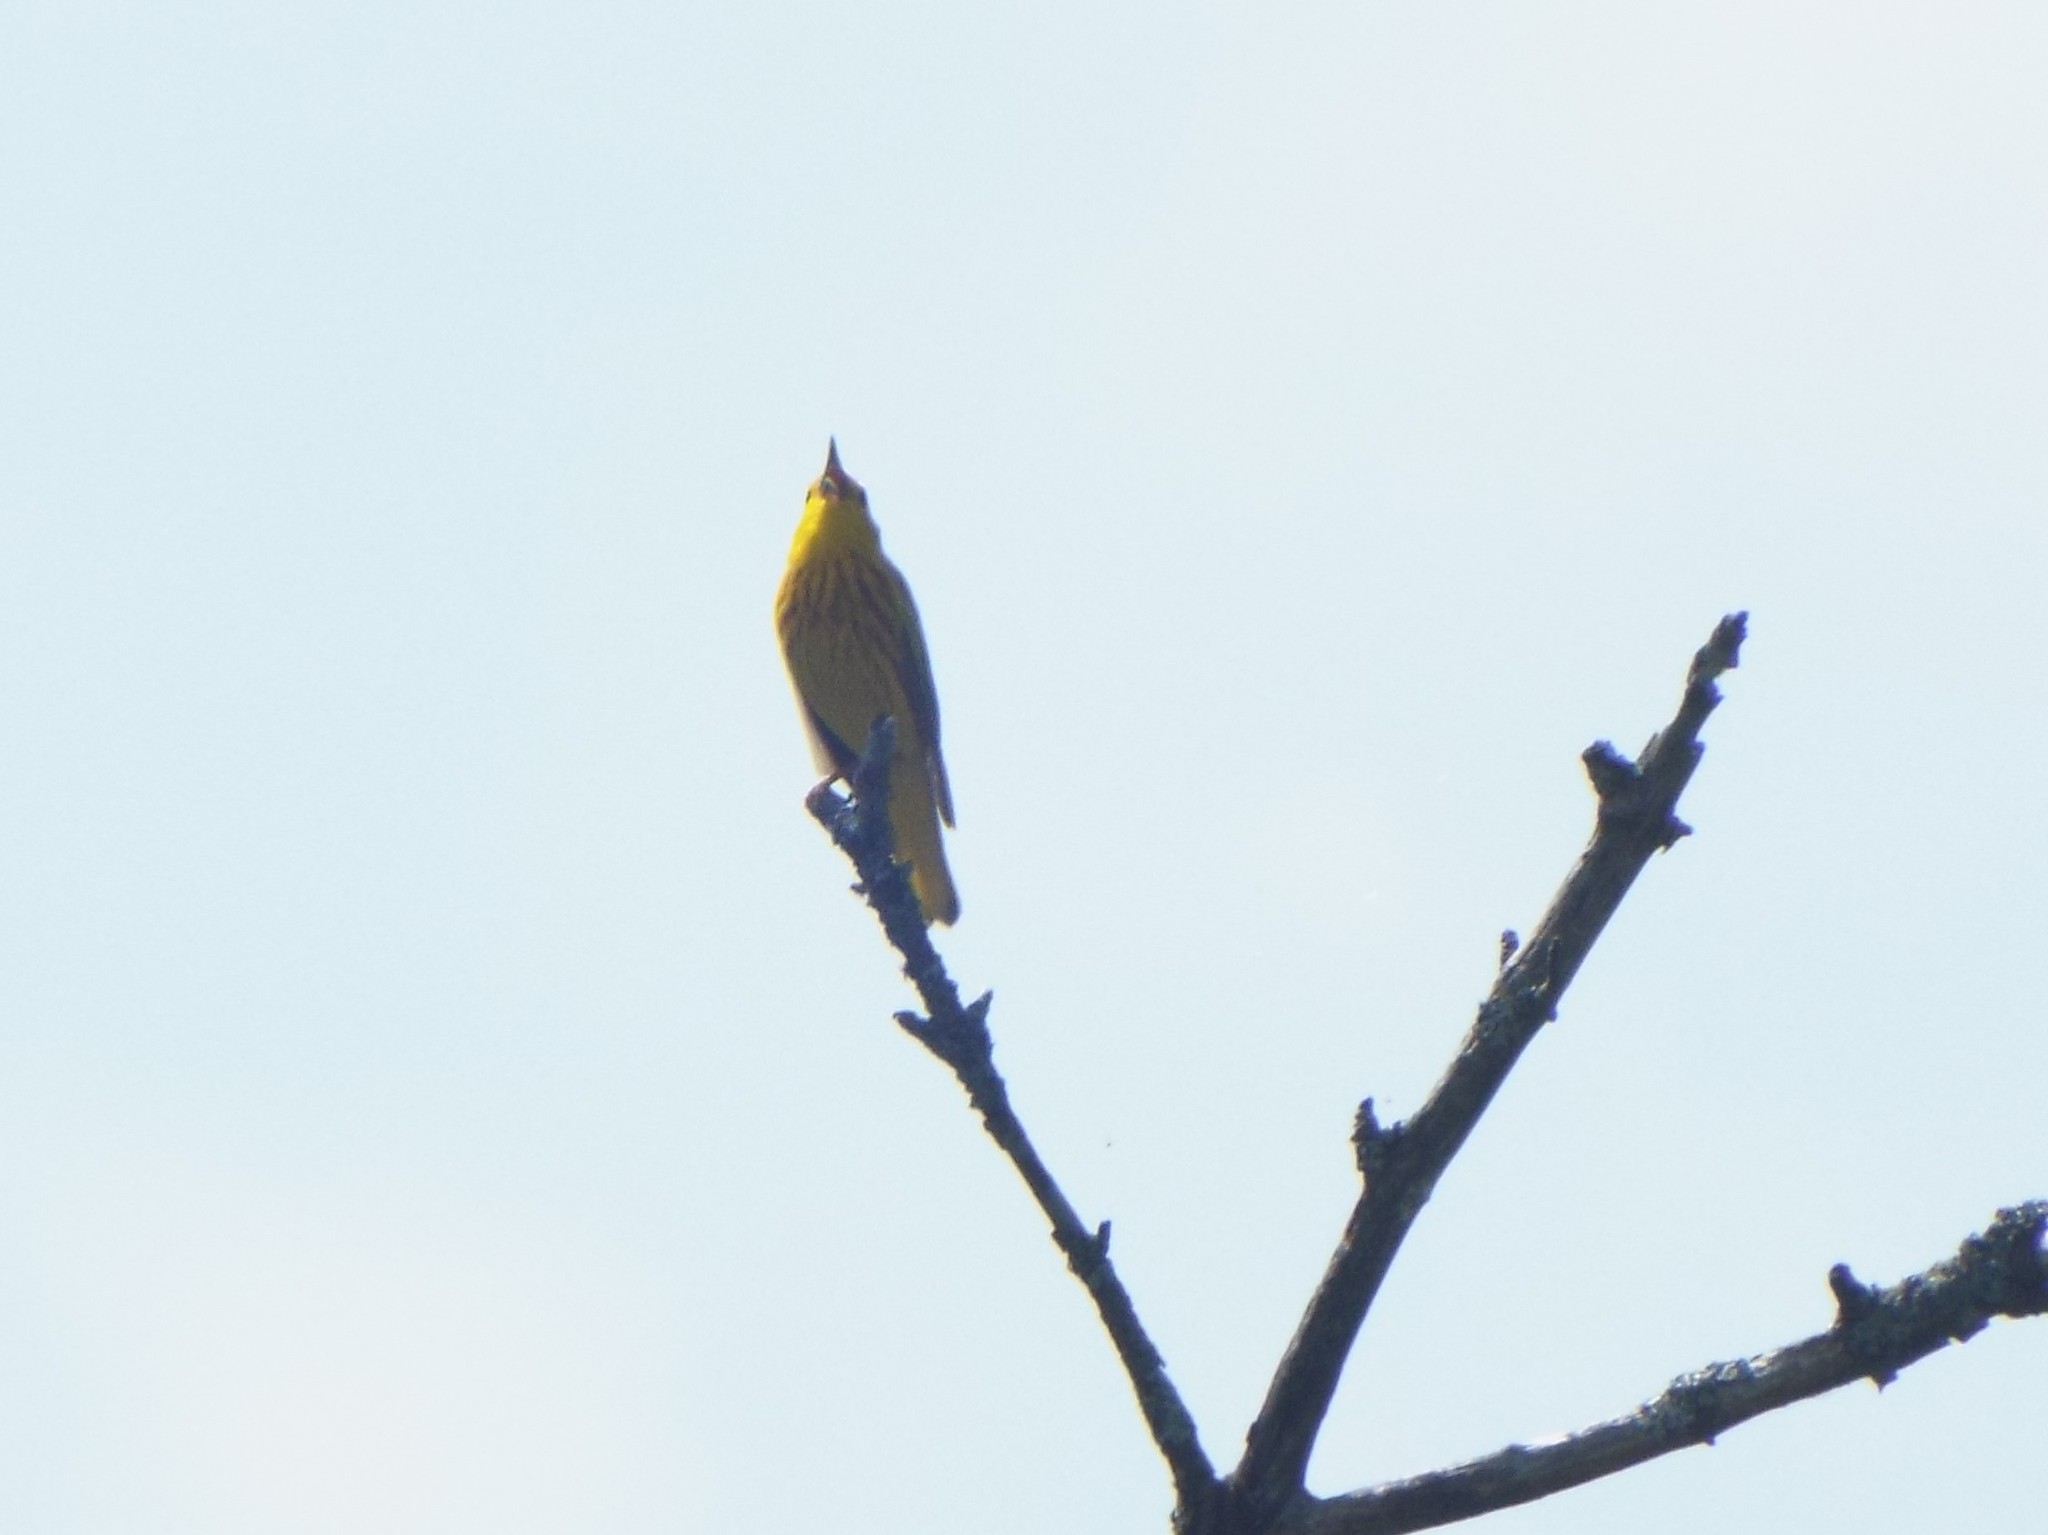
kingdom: Animalia
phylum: Chordata
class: Aves
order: Passeriformes
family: Parulidae
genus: Setophaga
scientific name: Setophaga petechia
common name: Yellow warbler
